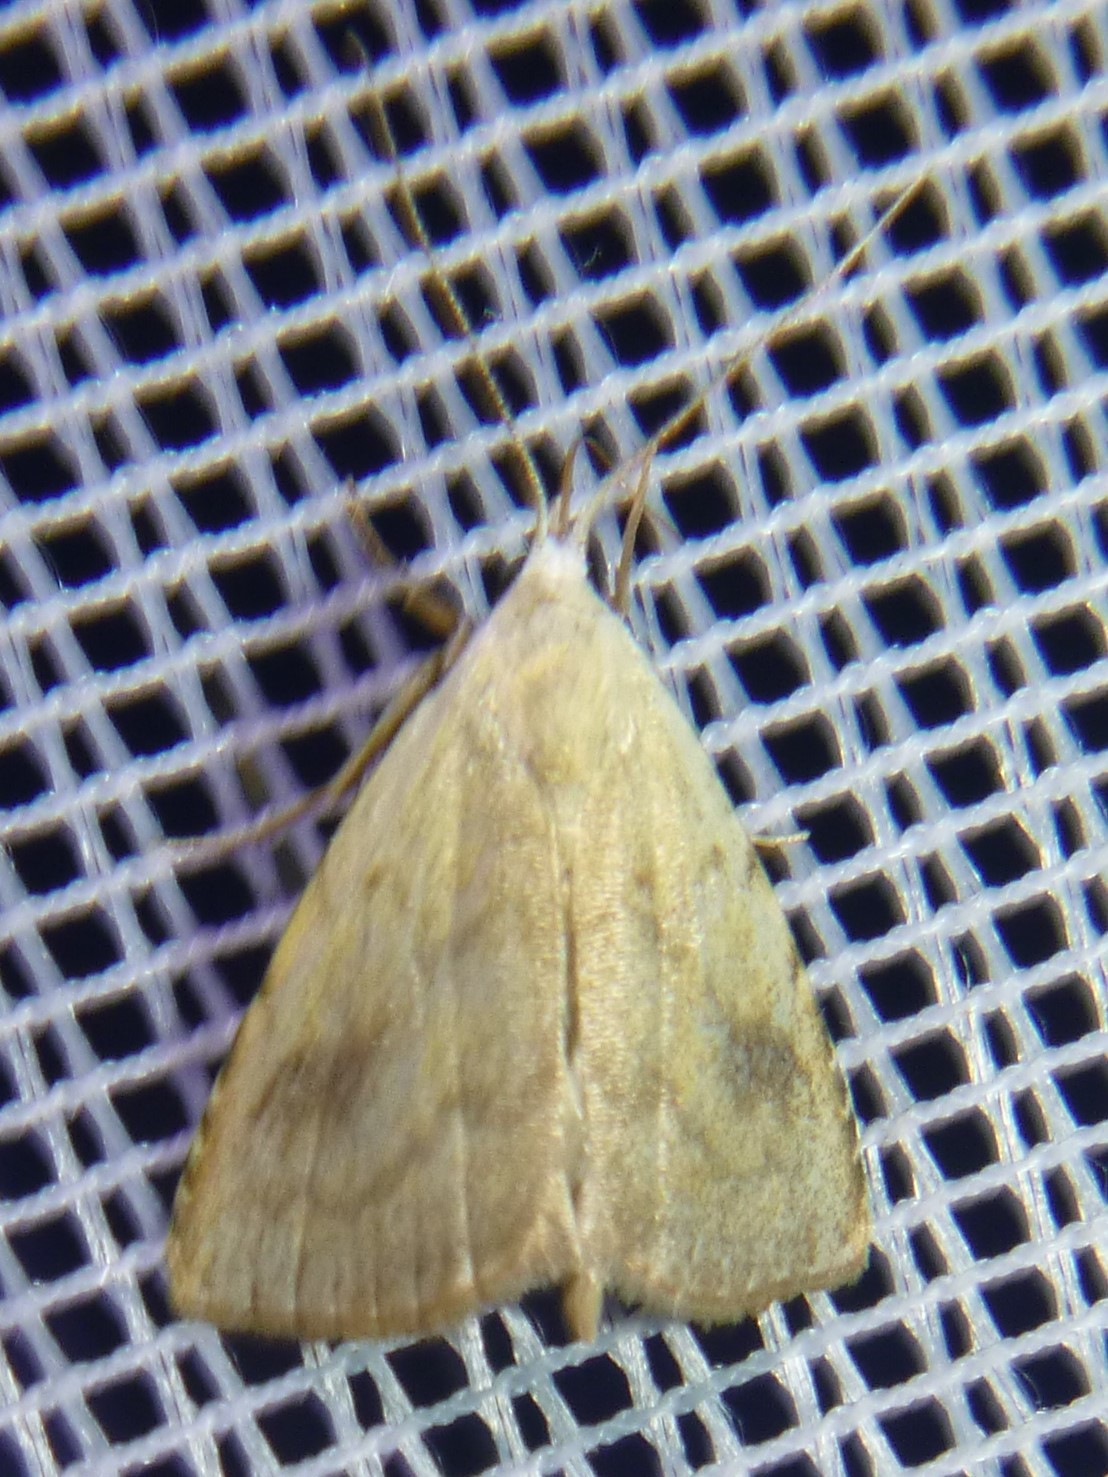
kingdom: Animalia
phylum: Arthropoda
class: Insecta
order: Lepidoptera
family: Erebidae
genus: Rivula
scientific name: Rivula sericealis
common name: Straw dot
